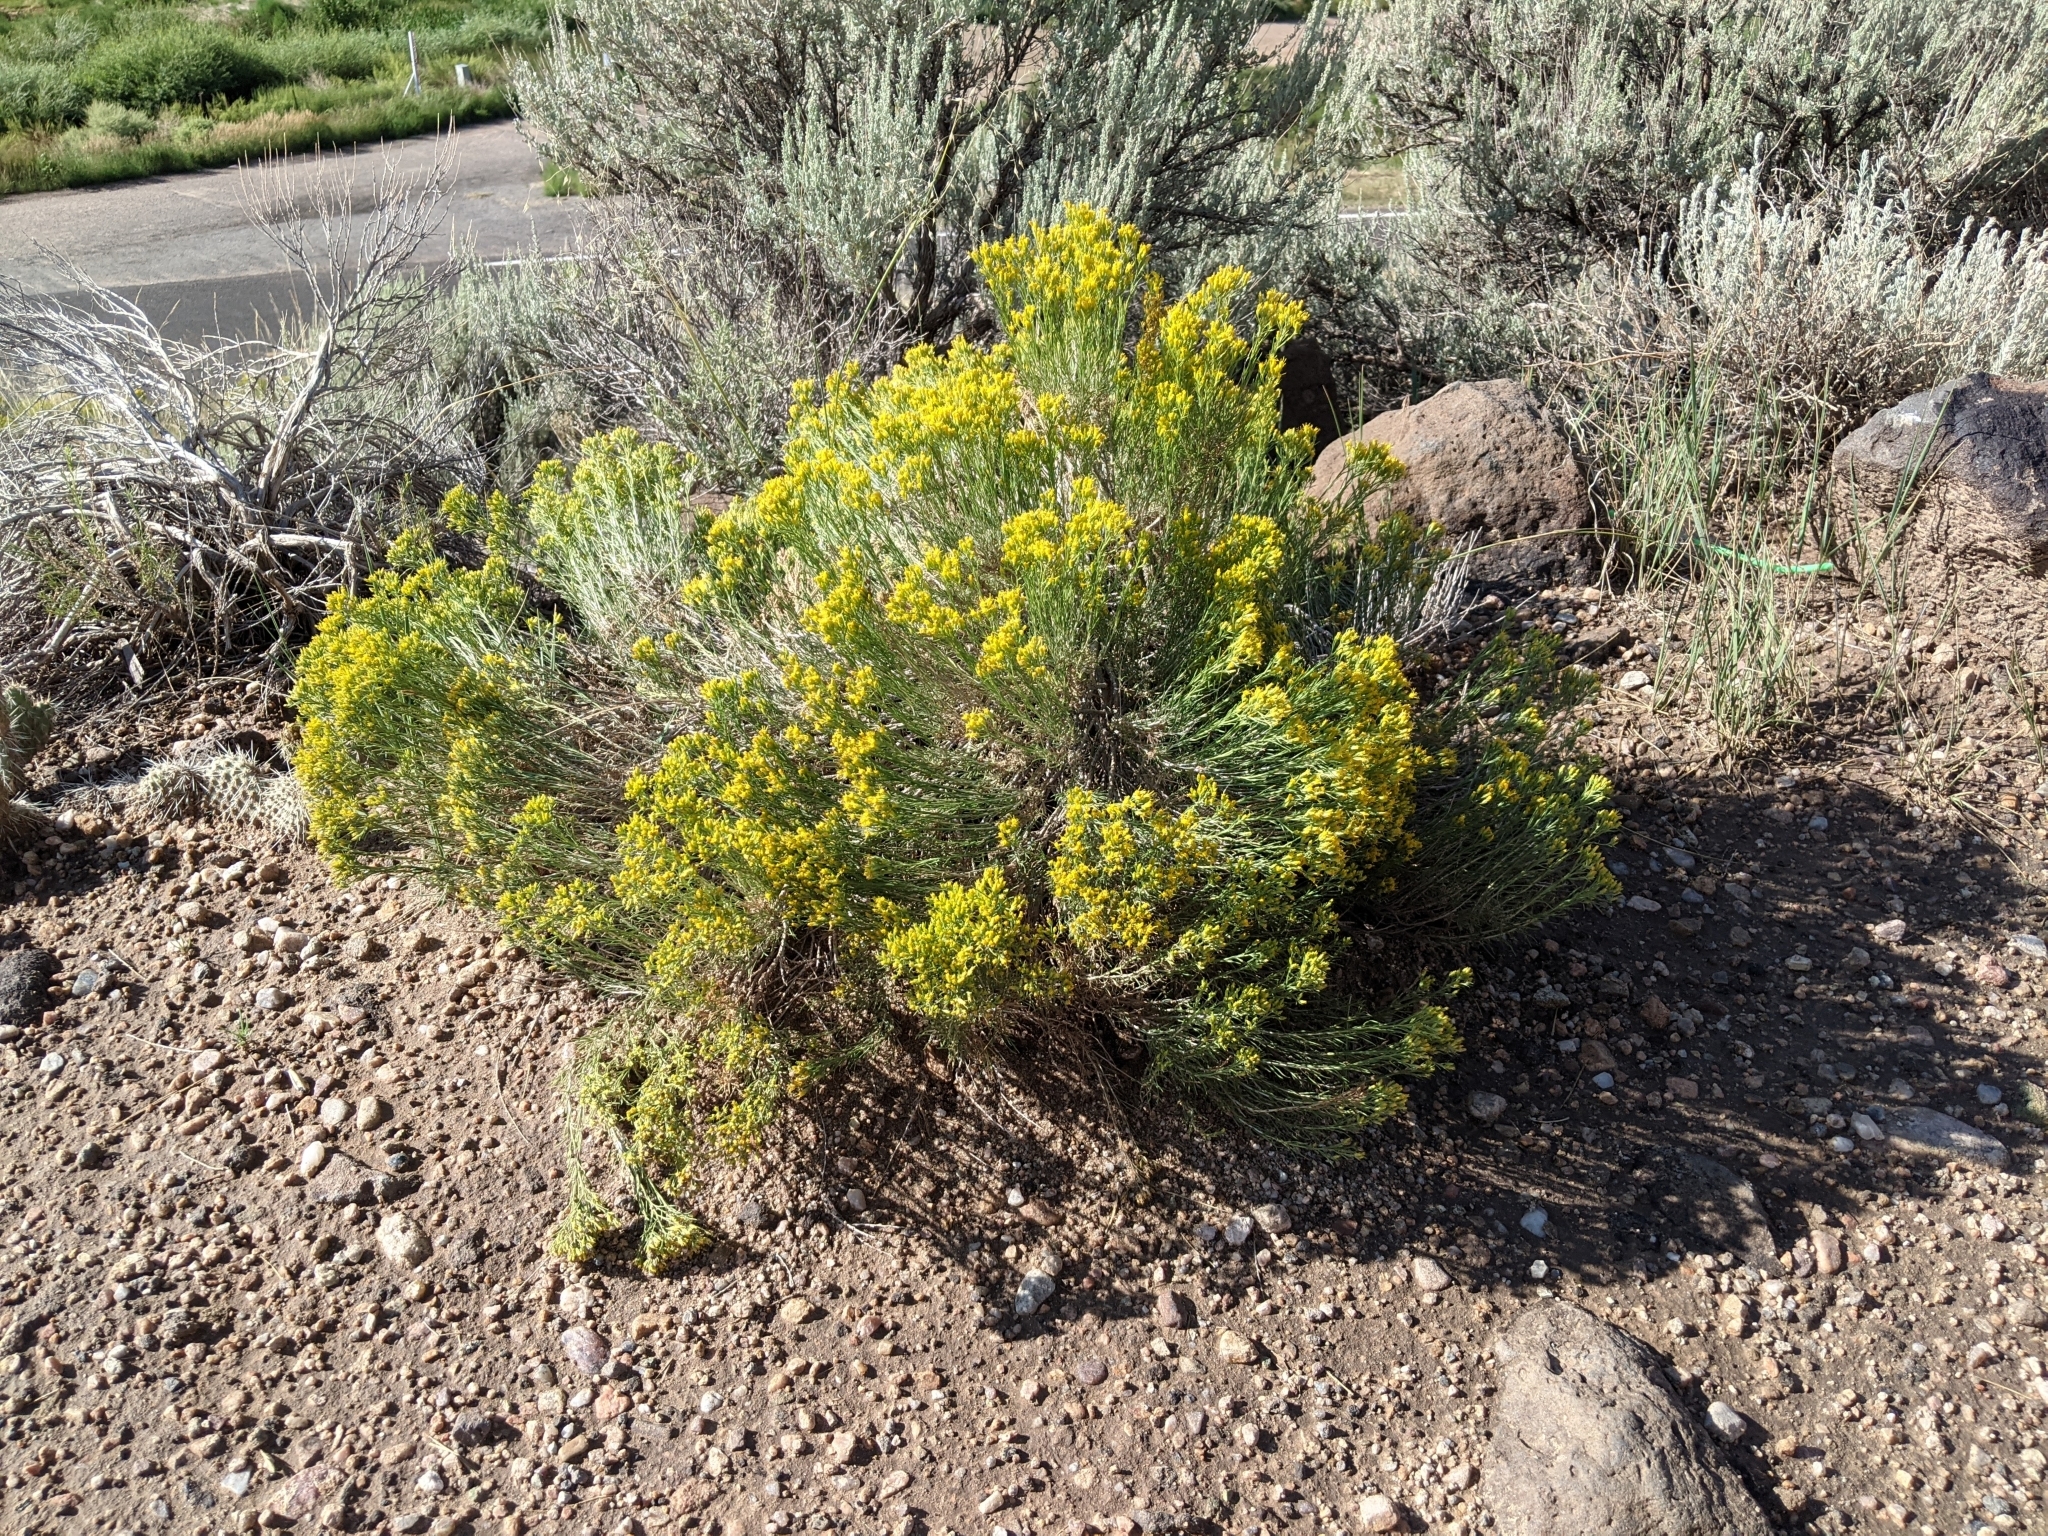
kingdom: Plantae
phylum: Tracheophyta
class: Magnoliopsida
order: Asterales
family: Asteraceae
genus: Chrysothamnus
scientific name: Chrysothamnus viscidiflorus
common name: Yellow rabbitbrush
